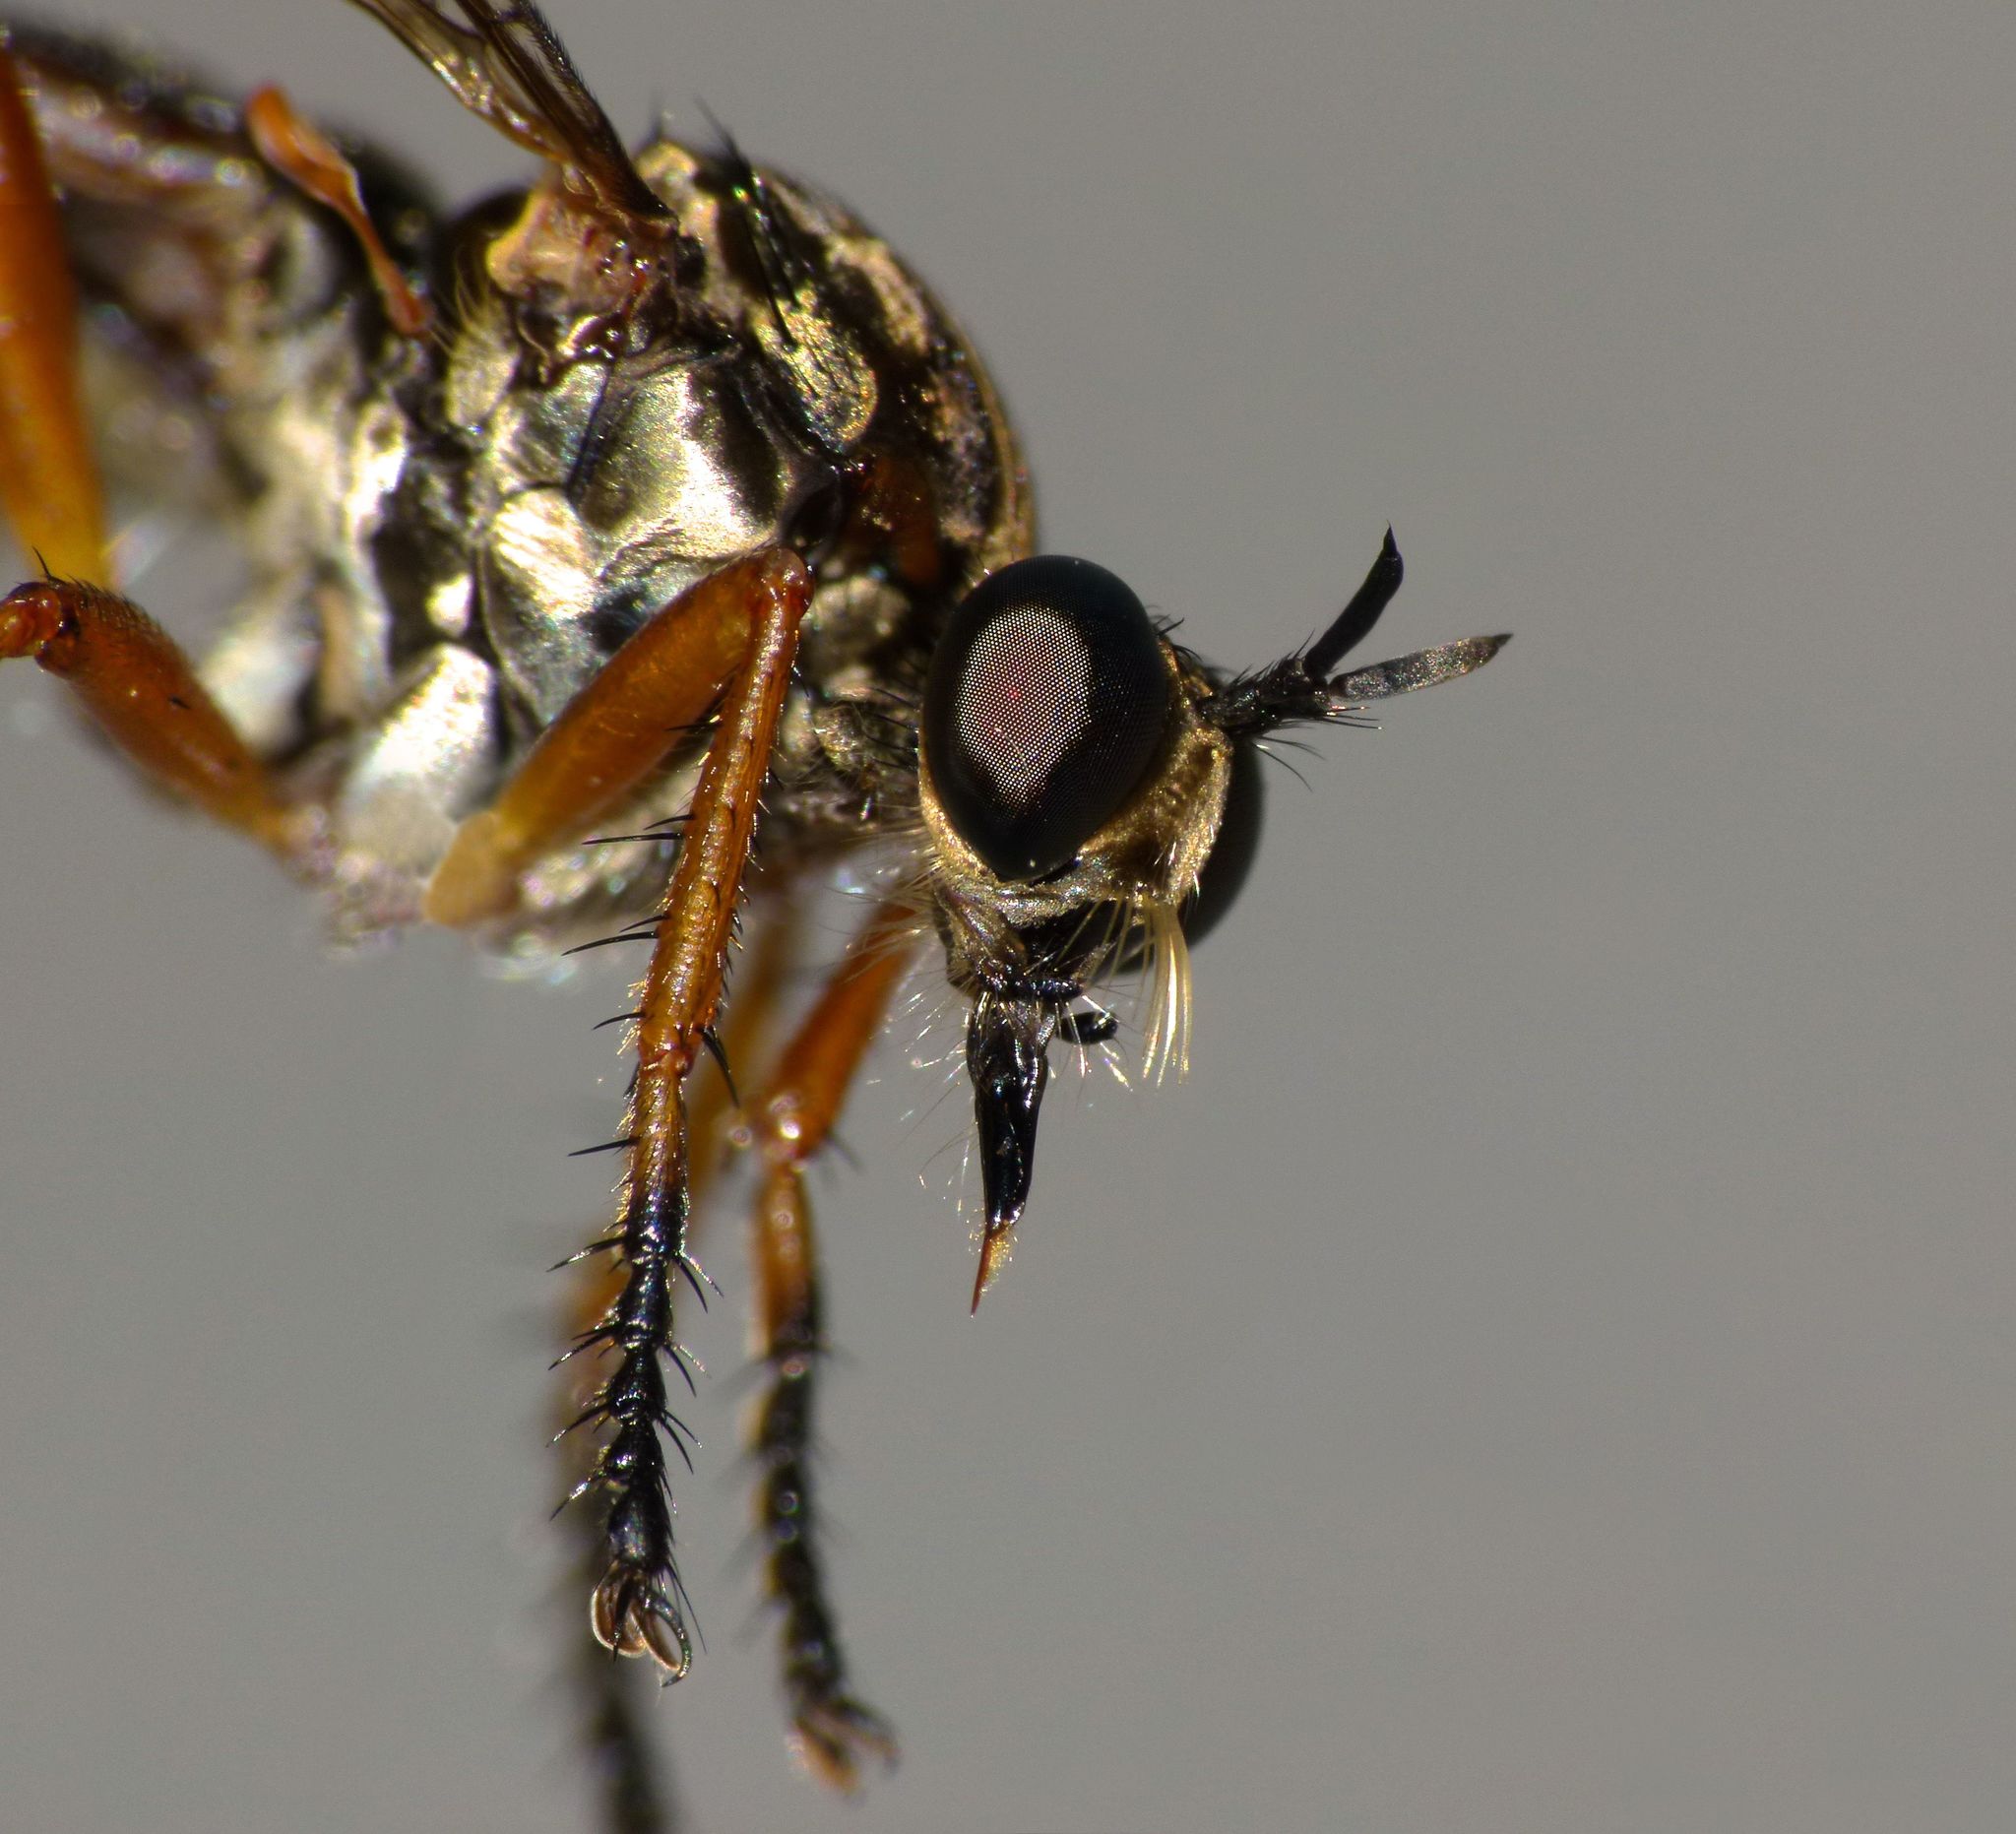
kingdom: Animalia
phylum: Arthropoda
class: Insecta
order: Diptera
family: Asilidae
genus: Saropogon
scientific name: Saropogon fugiens
